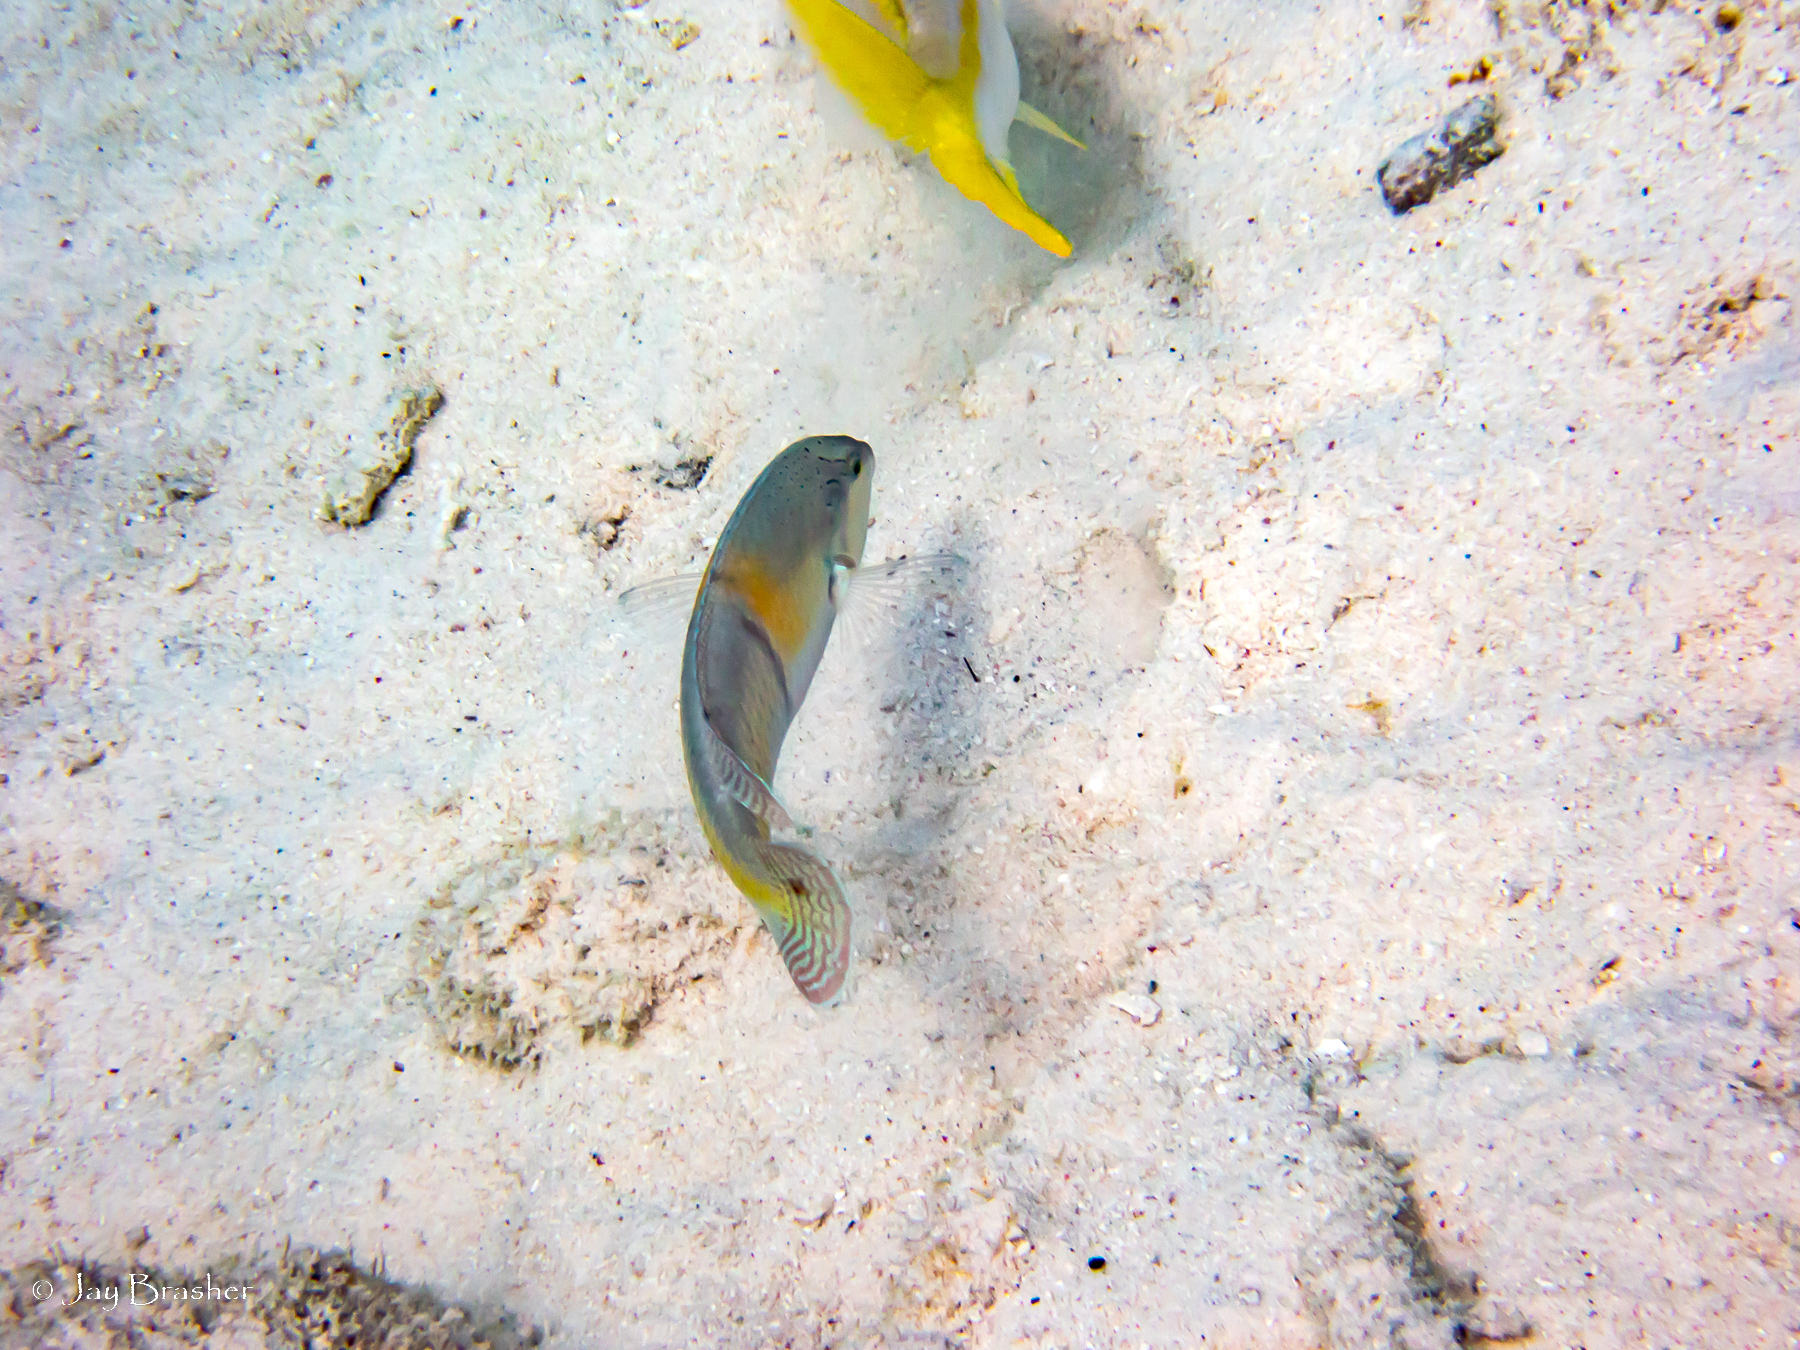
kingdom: Animalia
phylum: Chordata
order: Perciformes
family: Labridae
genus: Halichoeres
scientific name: Halichoeres garnoti
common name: Yellowhead wrasse
